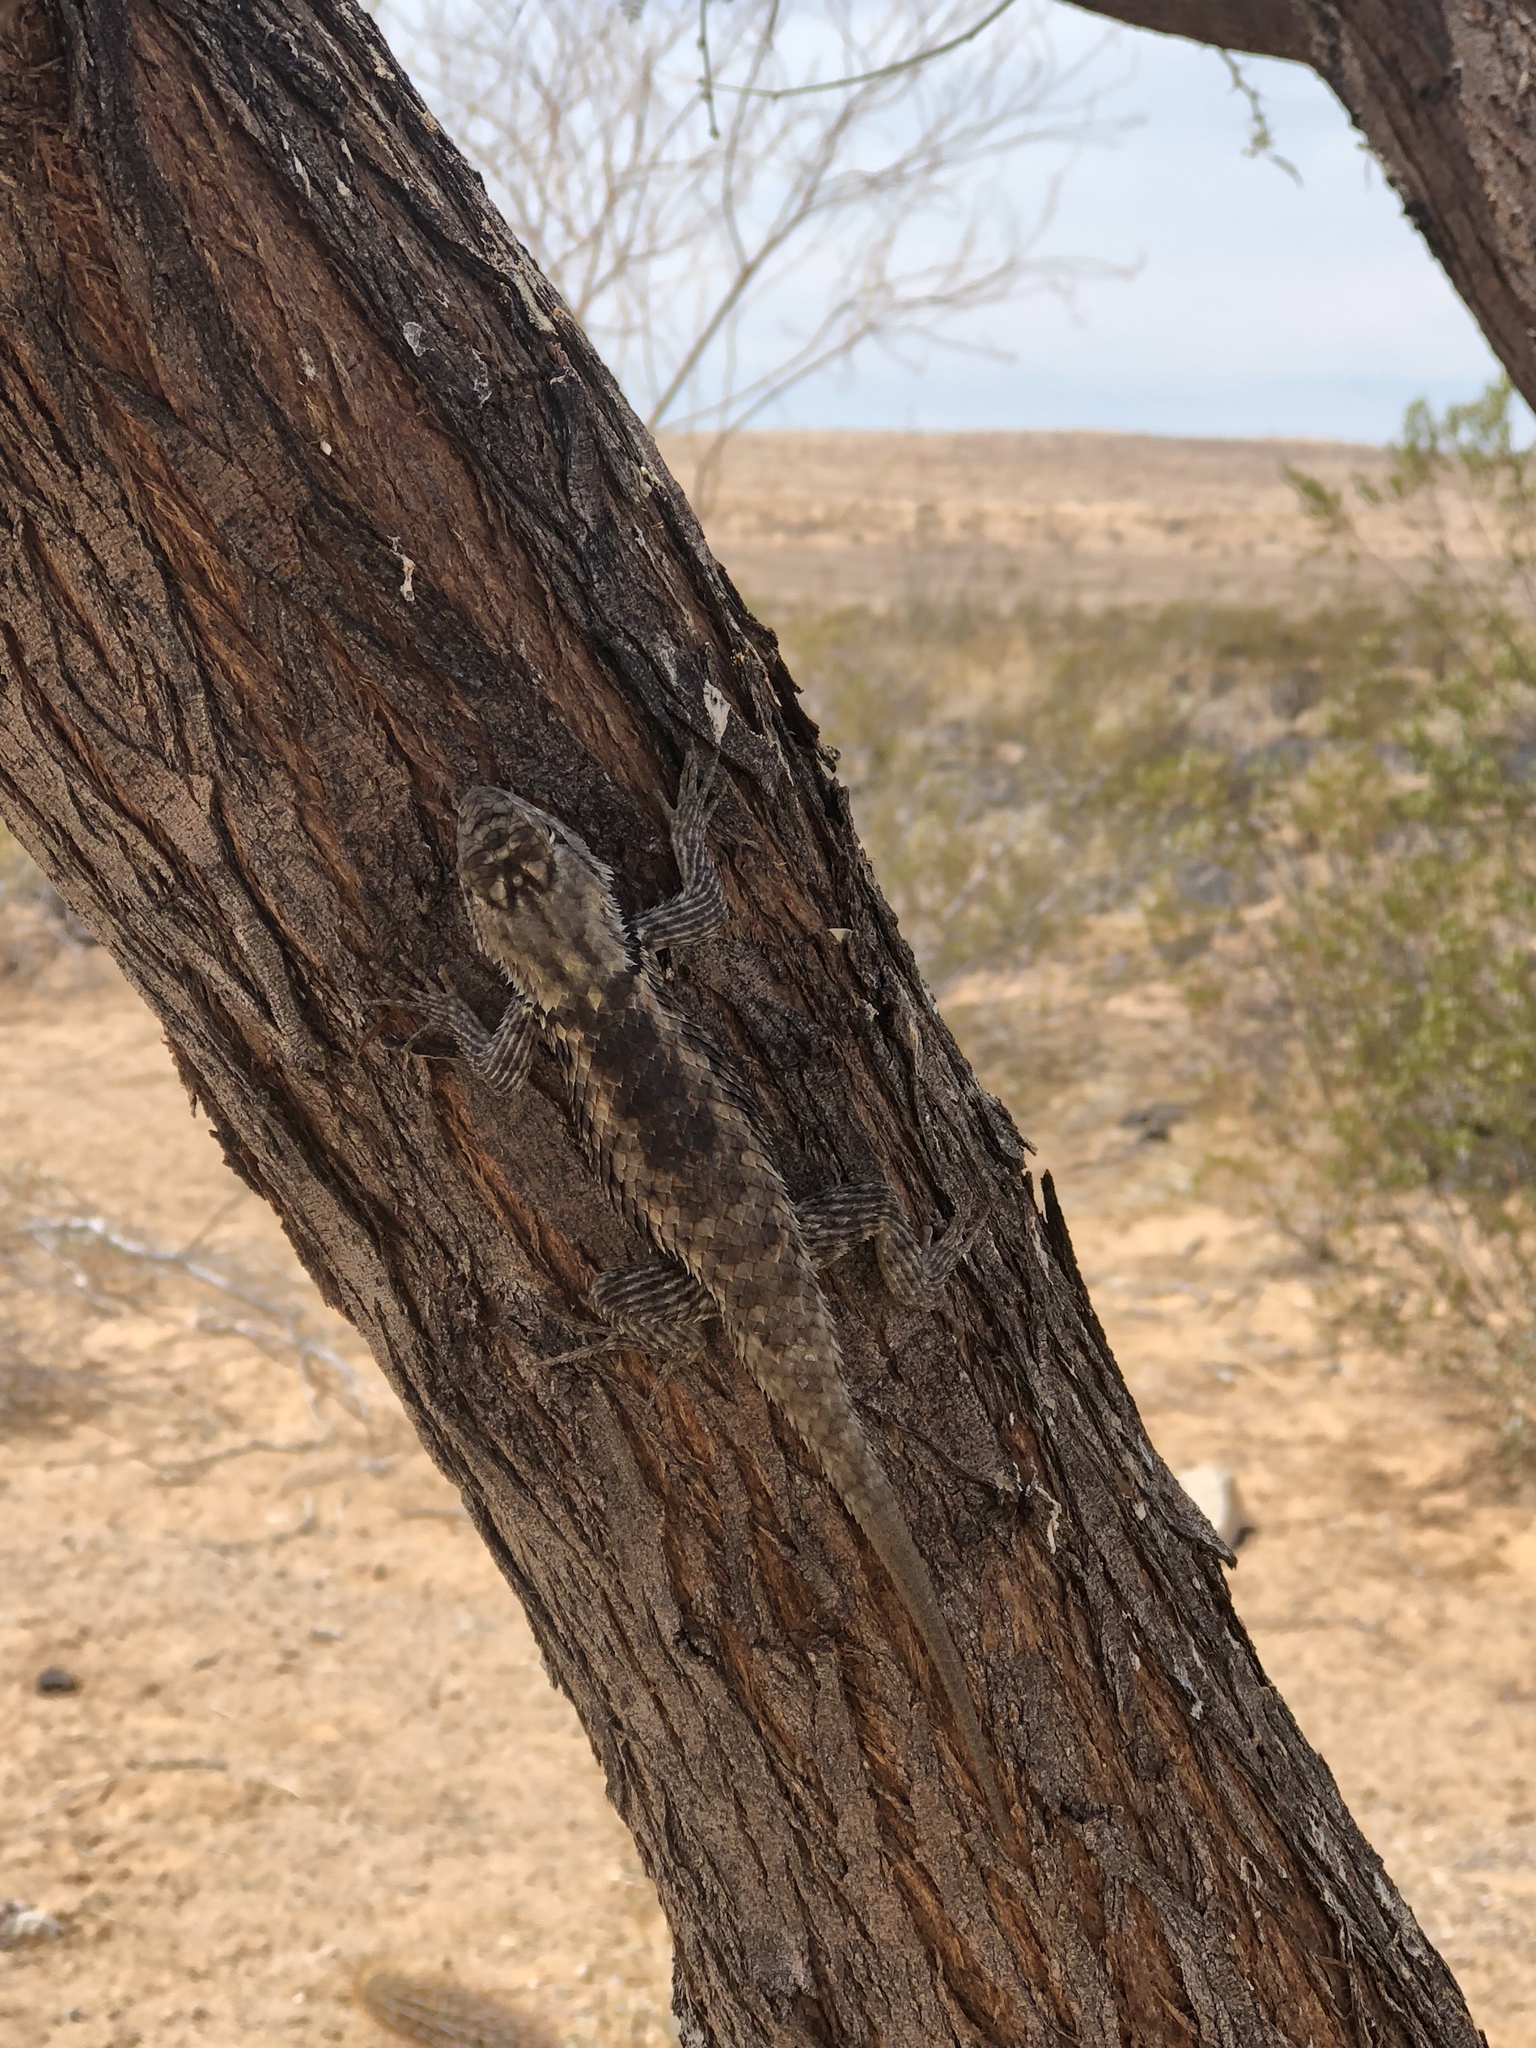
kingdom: Animalia
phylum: Chordata
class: Squamata
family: Phrynosomatidae
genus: Sceloporus
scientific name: Sceloporus magister
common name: Desert spiny lizard
